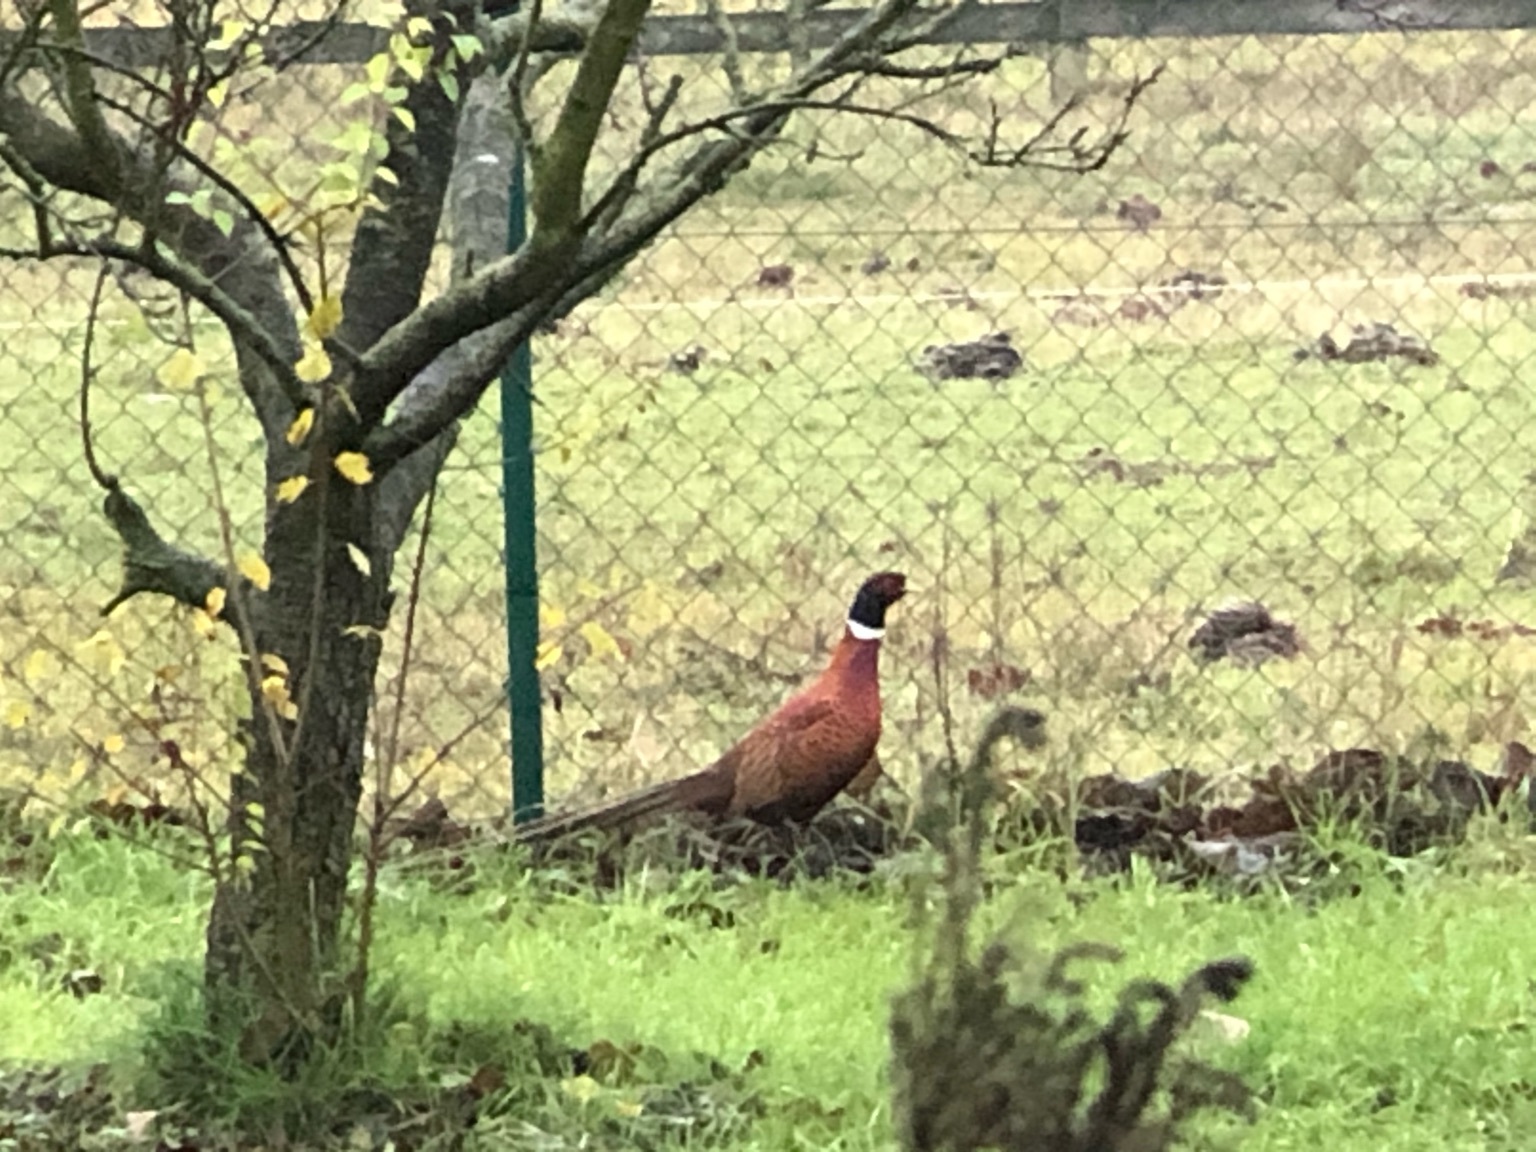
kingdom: Animalia
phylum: Chordata
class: Aves
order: Galliformes
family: Phasianidae
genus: Phasianus
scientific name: Phasianus colchicus
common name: Common pheasant
